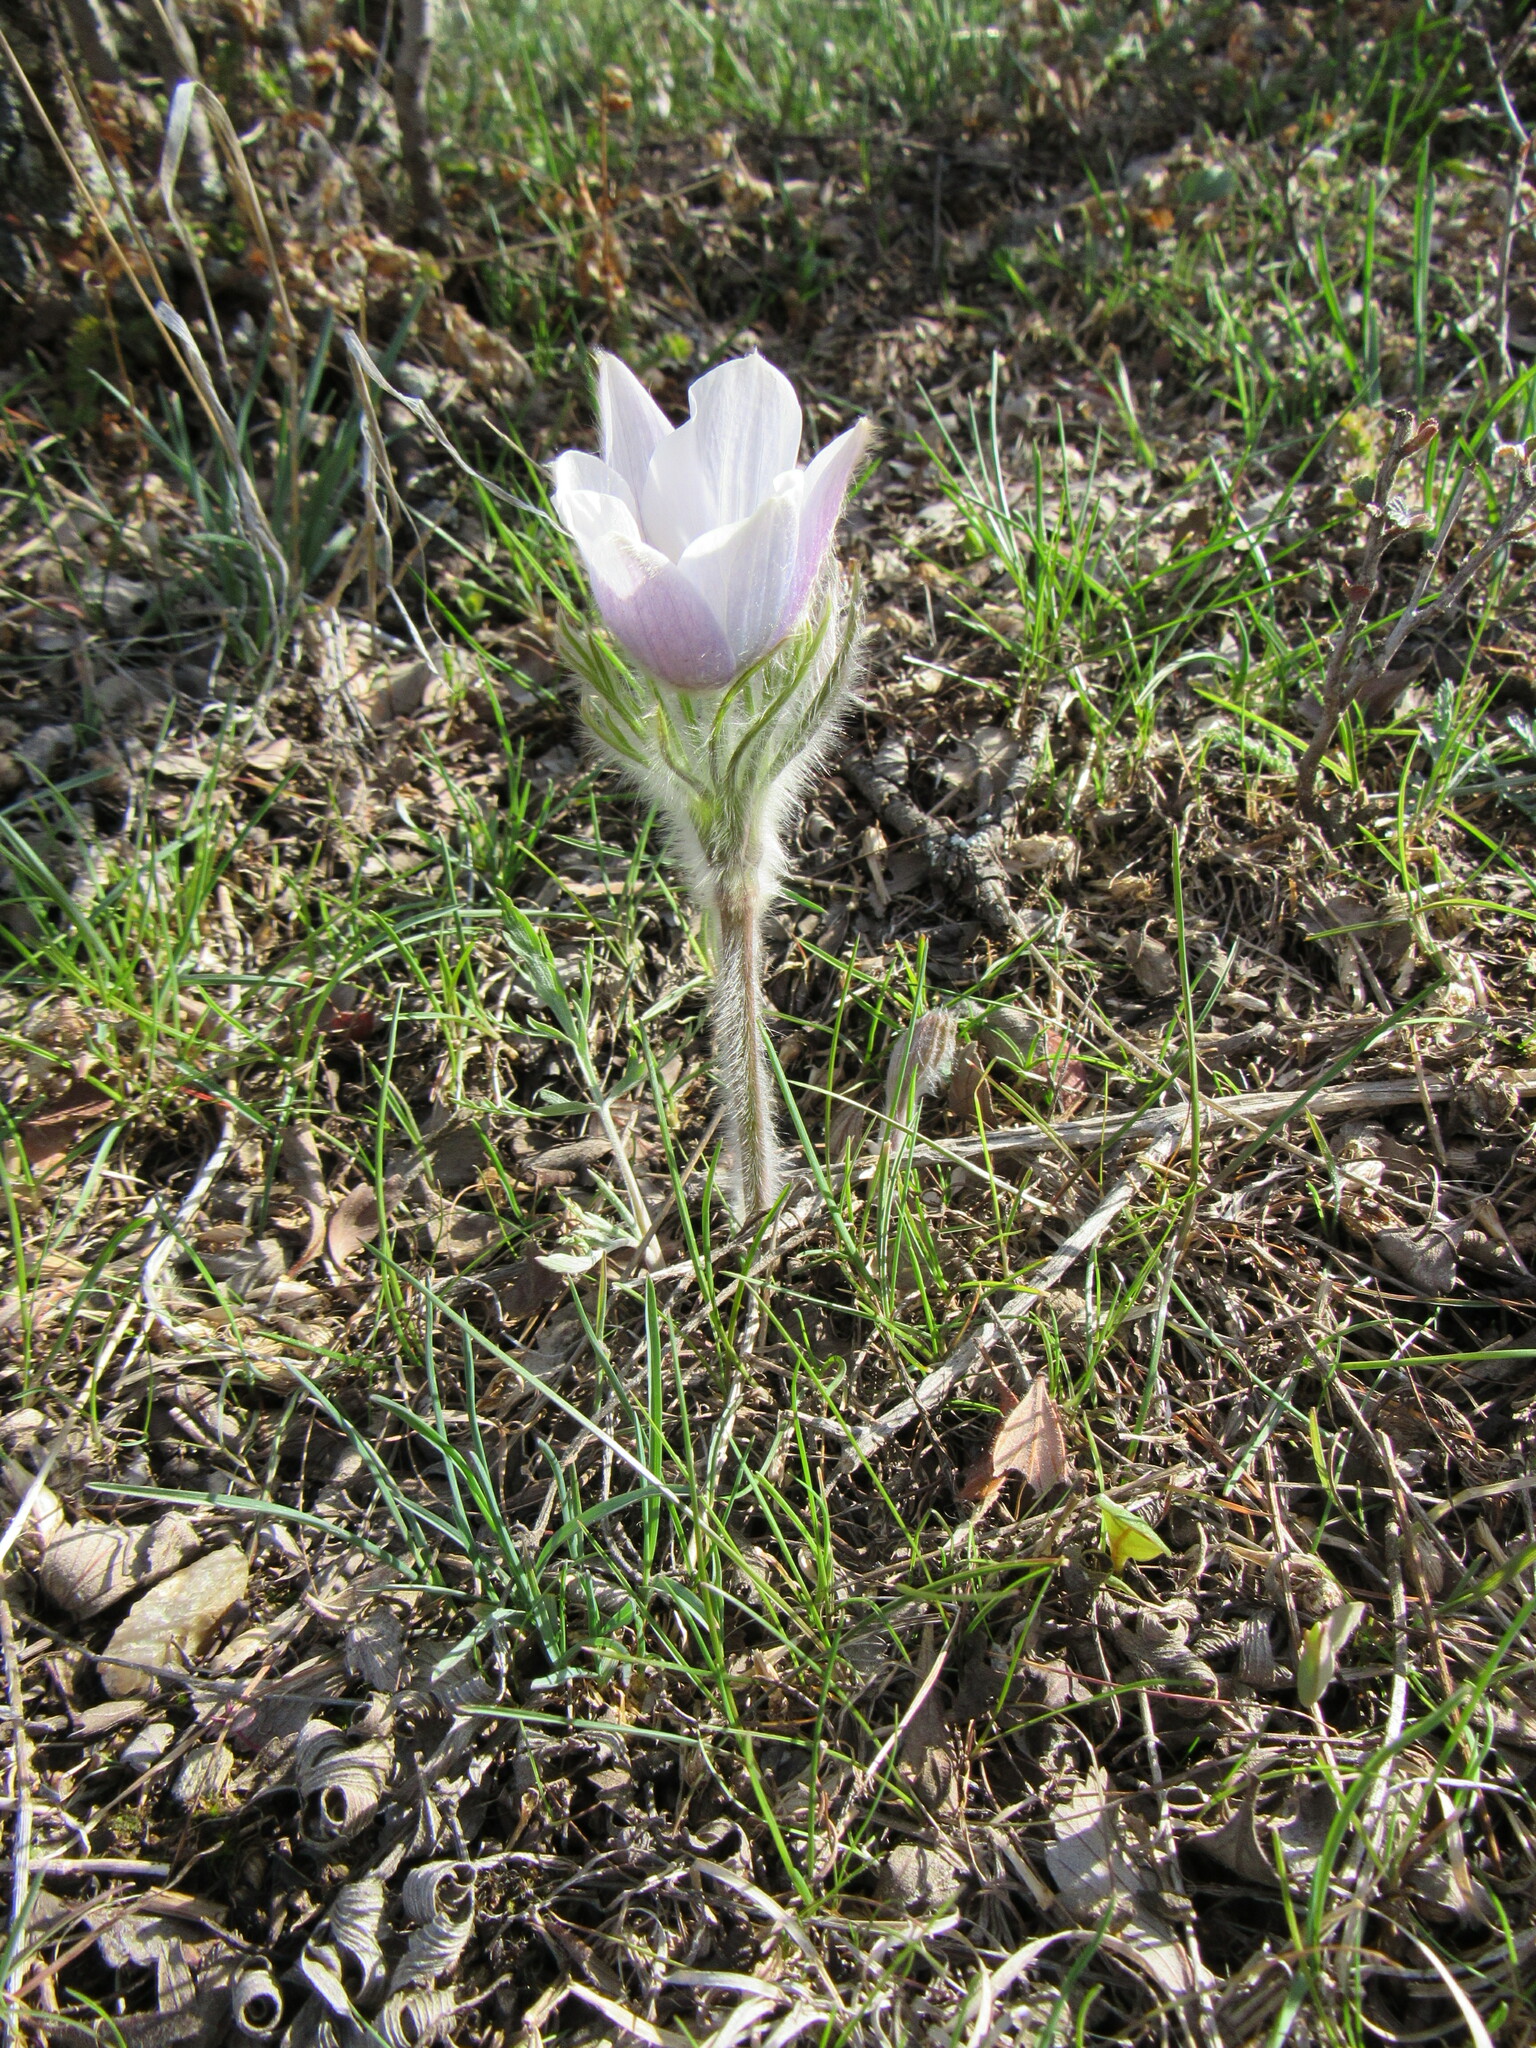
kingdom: Plantae
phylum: Tracheophyta
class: Magnoliopsida
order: Ranunculales
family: Ranunculaceae
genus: Pulsatilla
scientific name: Pulsatilla nuttalliana
